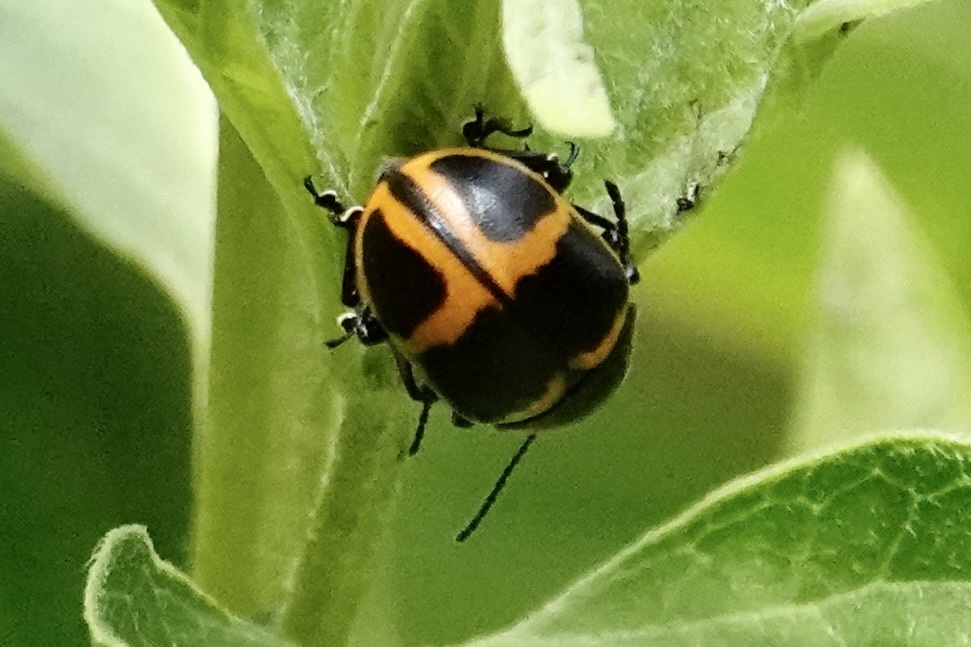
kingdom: Animalia
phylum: Arthropoda
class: Insecta
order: Coleoptera
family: Chrysomelidae
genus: Labidomera
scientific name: Labidomera clivicollis
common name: Swamp milkweed leaf beetle
